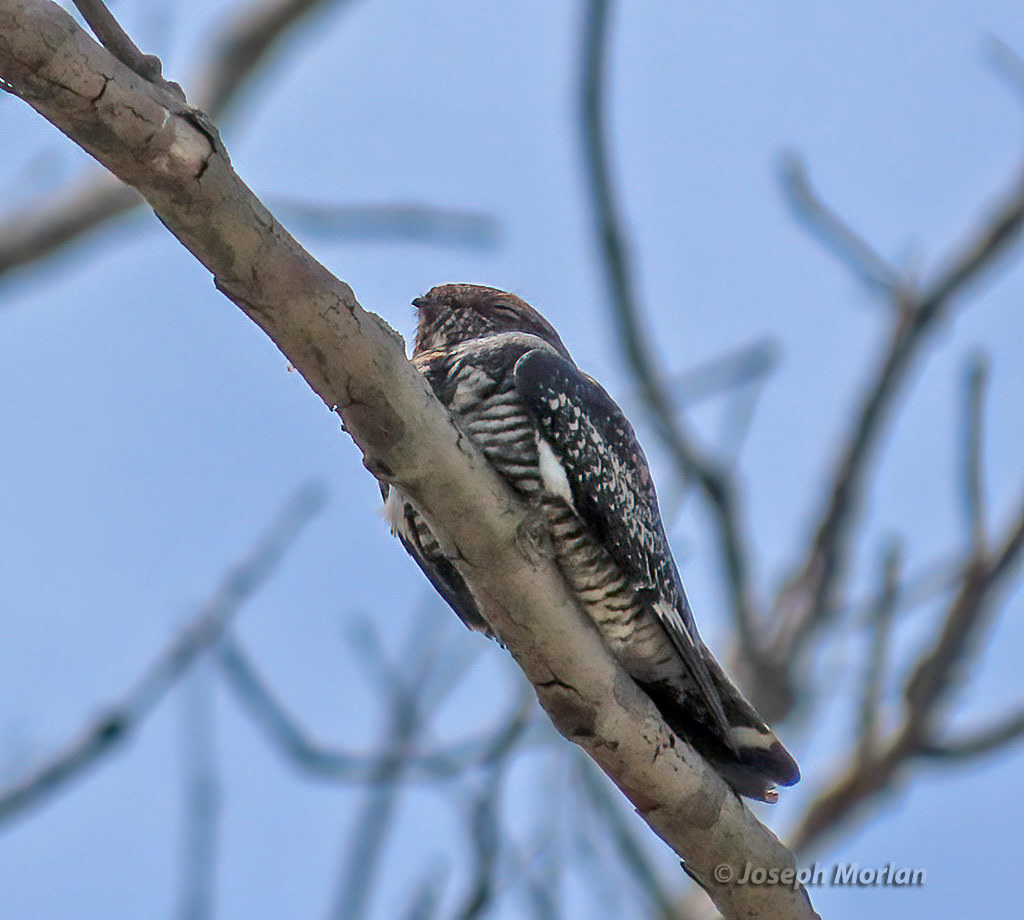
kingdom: Animalia
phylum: Chordata
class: Aves
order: Caprimulgiformes
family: Caprimulgidae
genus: Chordeiles
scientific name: Chordeiles minor
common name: Common nighthawk
